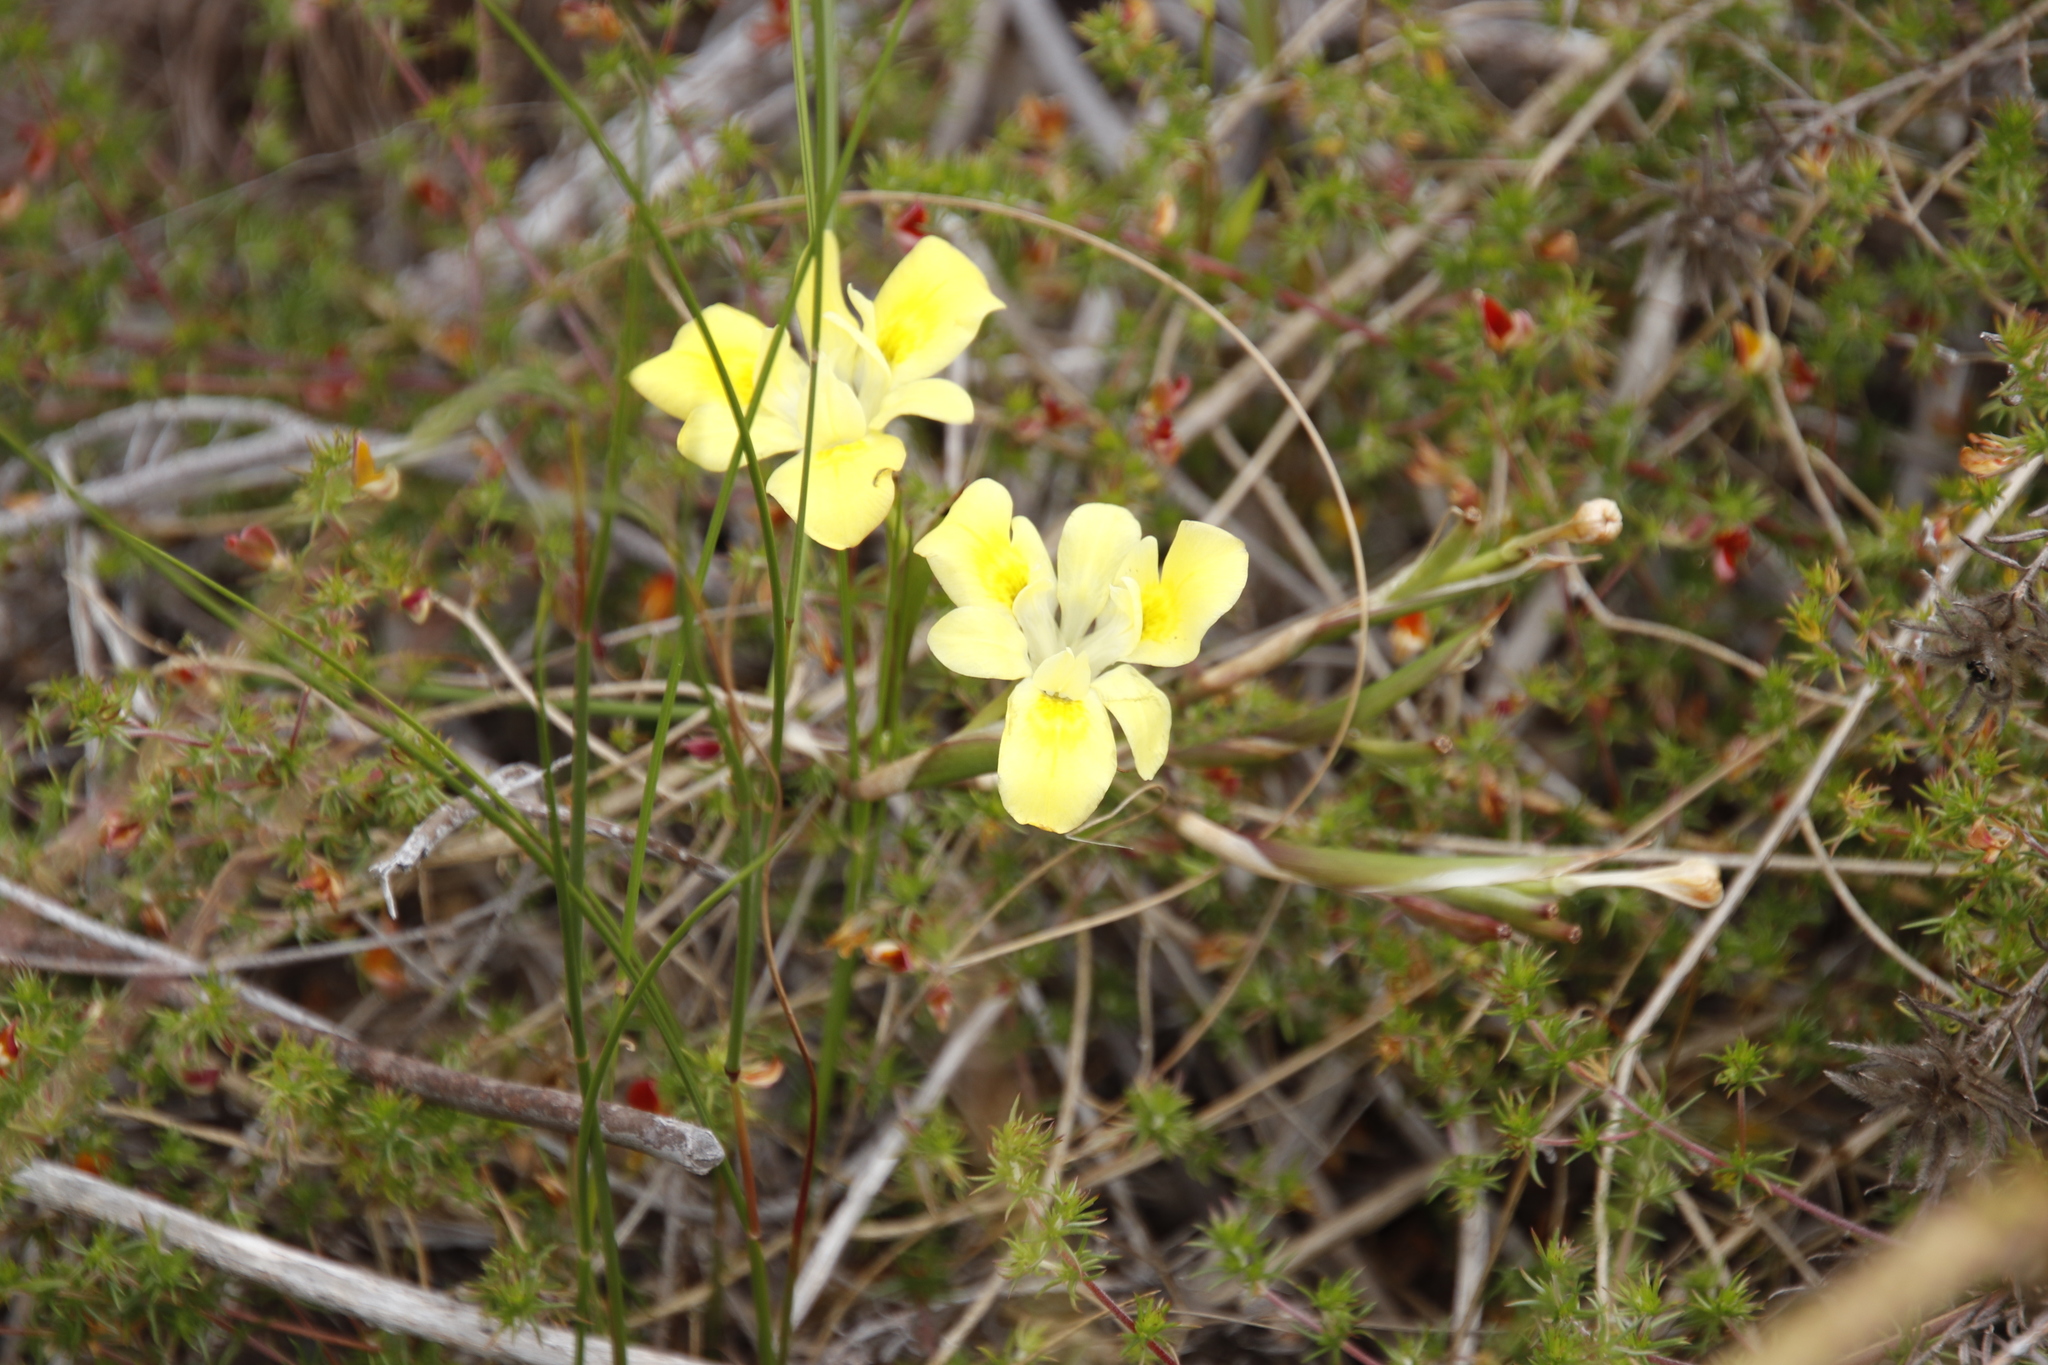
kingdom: Plantae
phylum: Tracheophyta
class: Liliopsida
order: Asparagales
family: Iridaceae
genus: Moraea
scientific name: Moraea fugax
